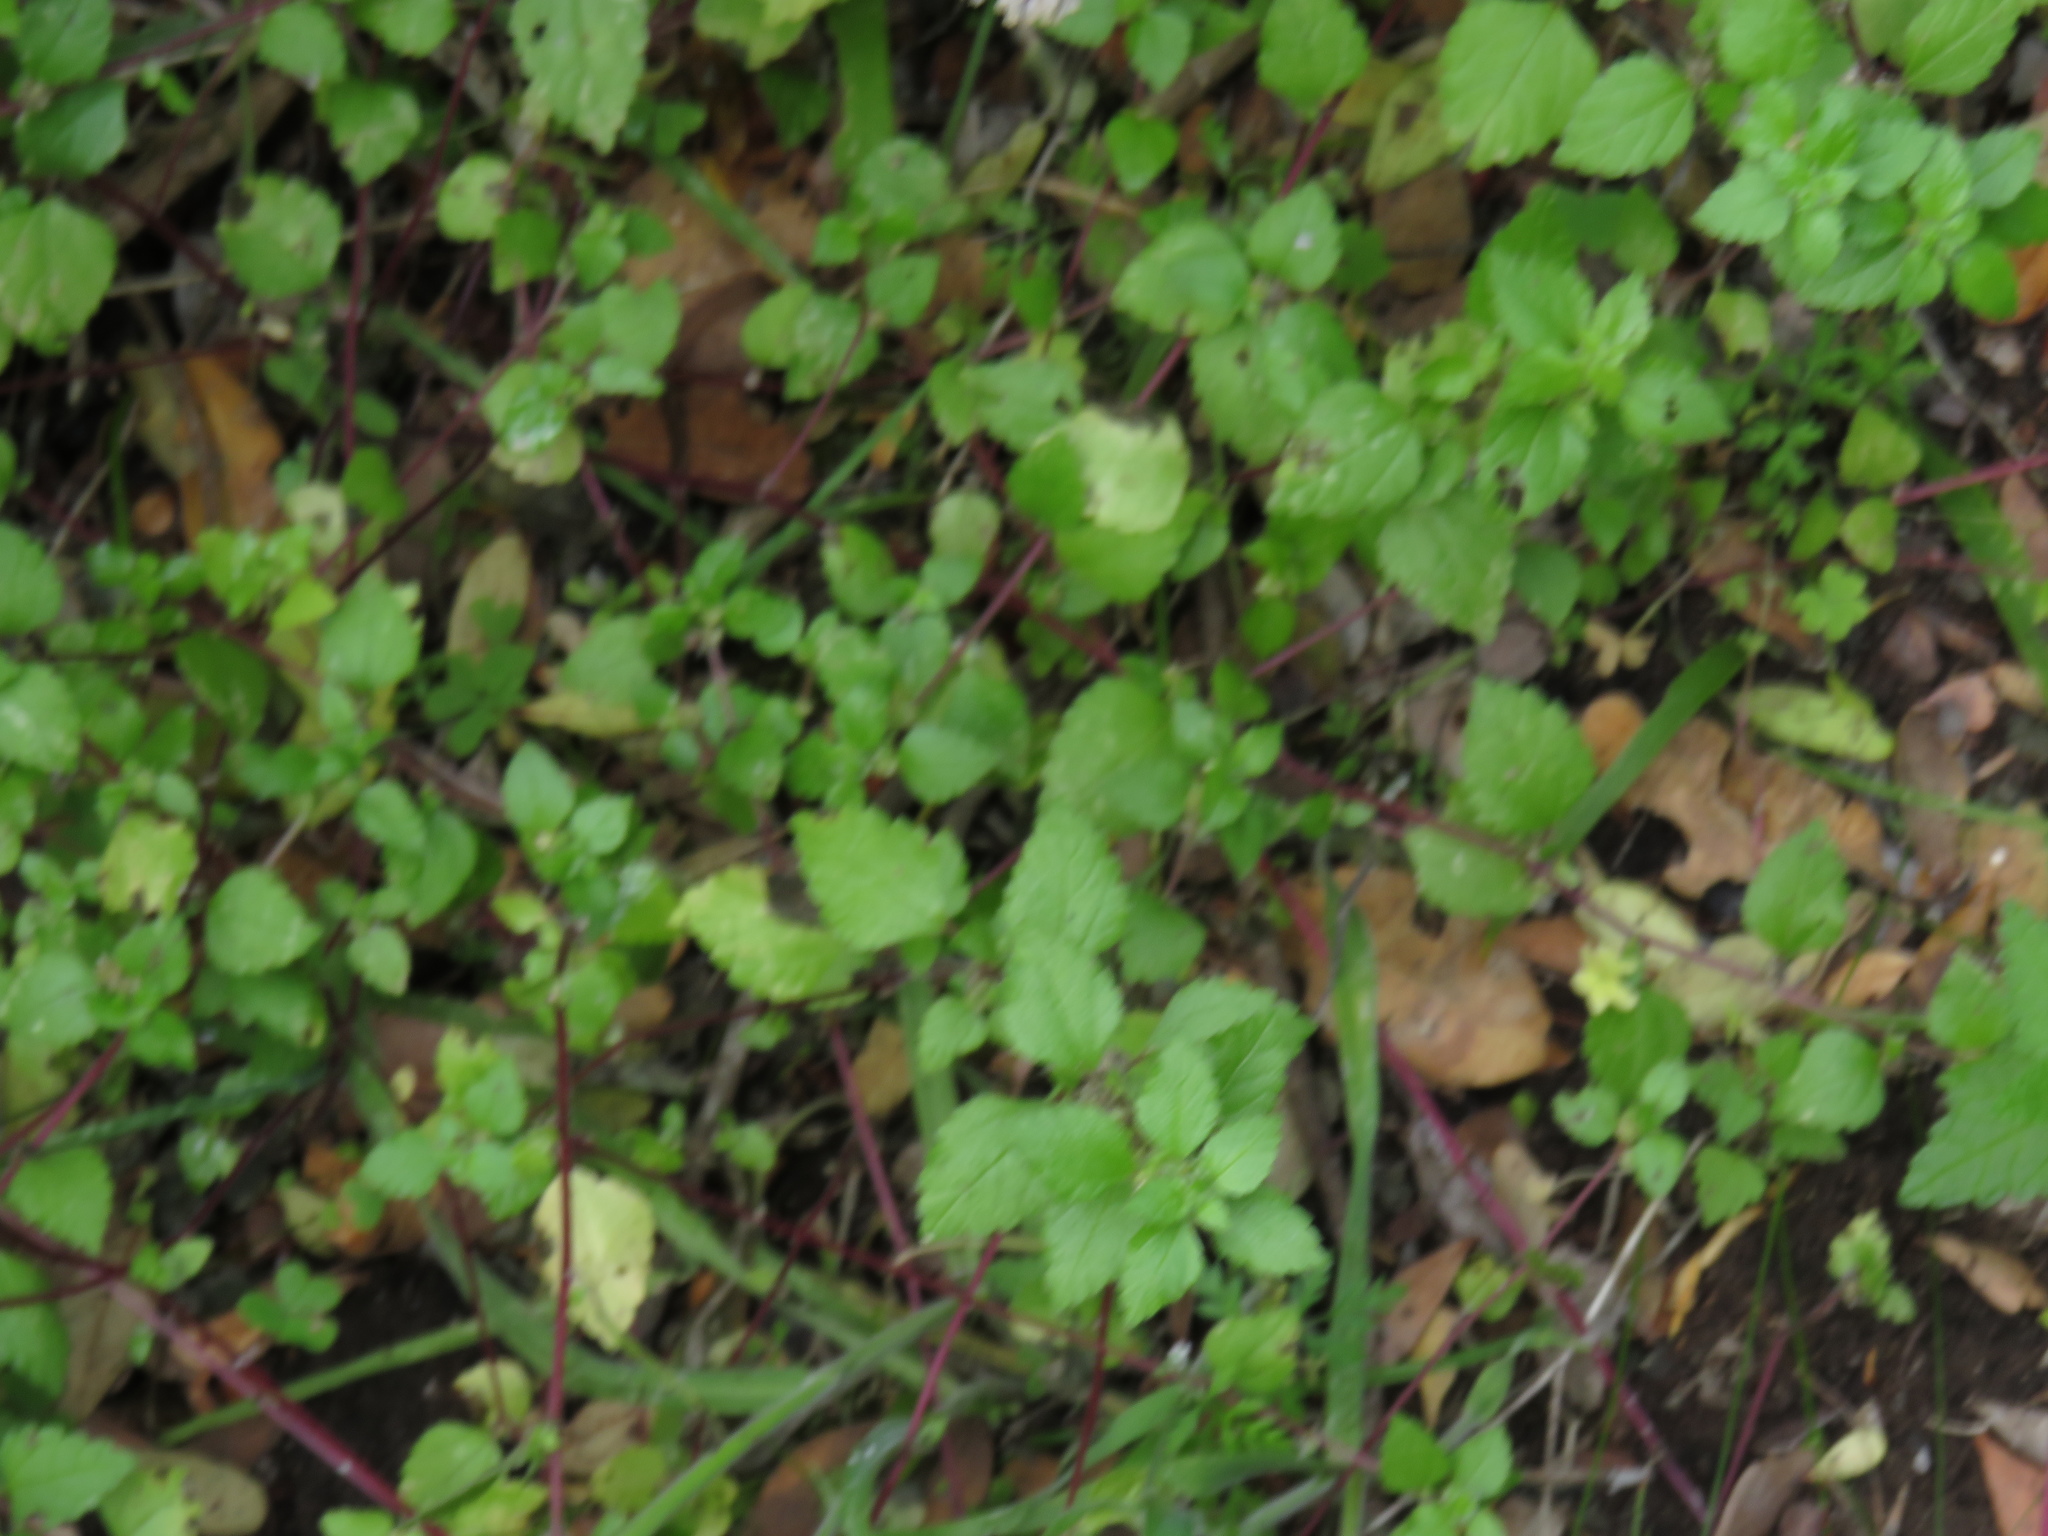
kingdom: Plantae
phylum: Tracheophyta
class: Magnoliopsida
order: Rosales
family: Urticaceae
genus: Didymodoxa
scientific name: Didymodoxa capensis
